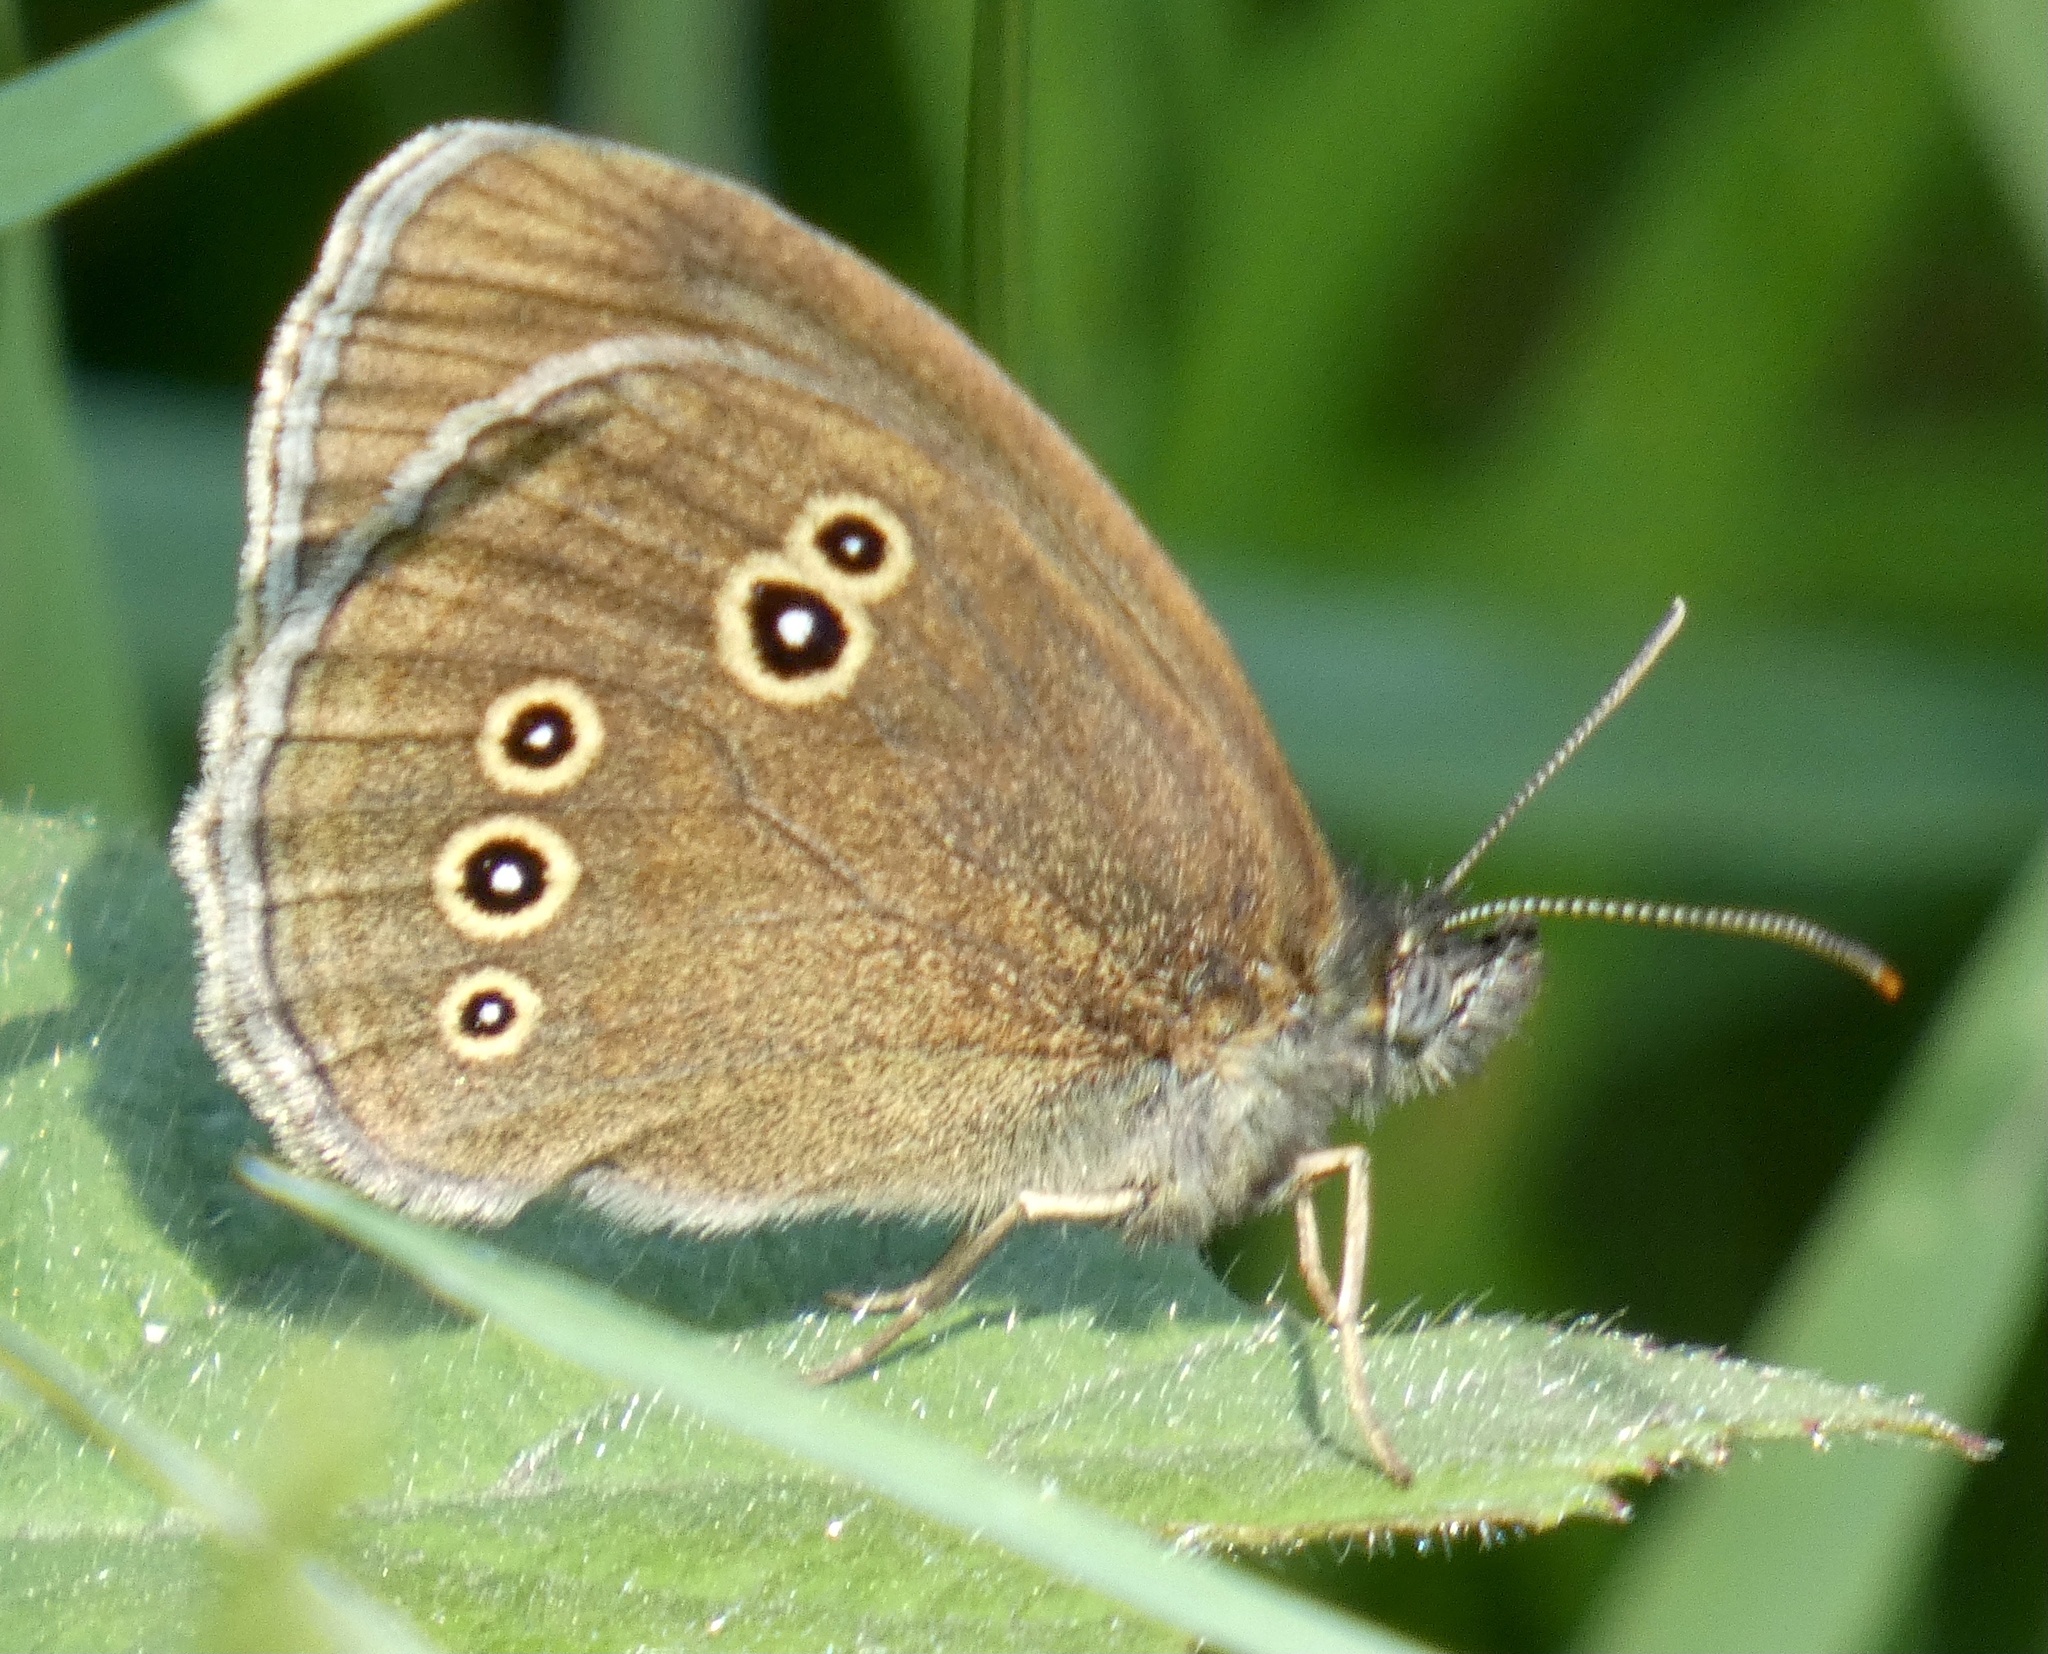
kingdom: Animalia
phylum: Arthropoda
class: Insecta
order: Lepidoptera
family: Nymphalidae
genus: Aphantopus
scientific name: Aphantopus hyperantus
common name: Ringlet
